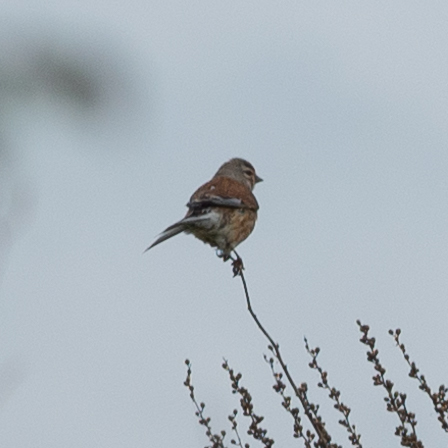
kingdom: Animalia
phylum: Chordata
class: Aves
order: Passeriformes
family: Fringillidae
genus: Linaria
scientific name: Linaria cannabina
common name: Common linnet
